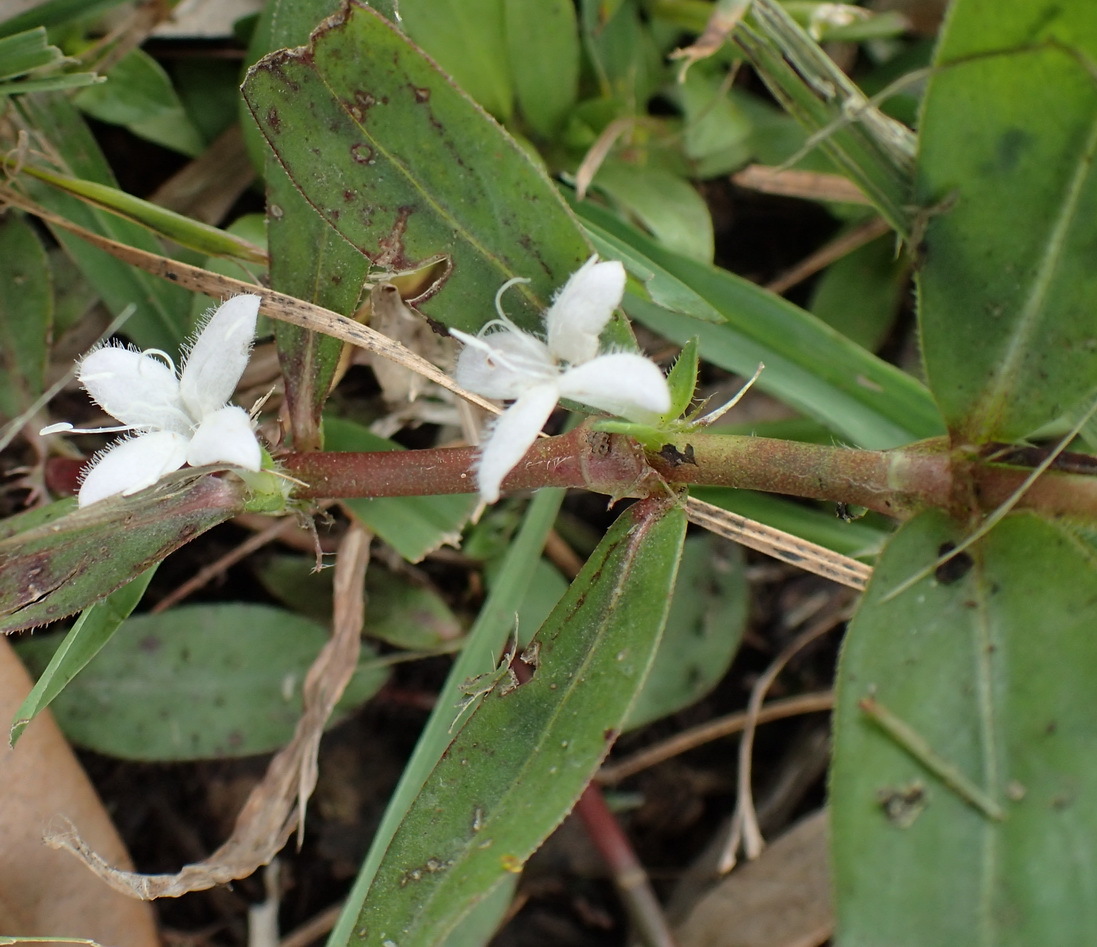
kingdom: Plantae
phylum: Tracheophyta
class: Magnoliopsida
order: Gentianales
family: Rubiaceae
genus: Diodia
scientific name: Diodia virginiana
